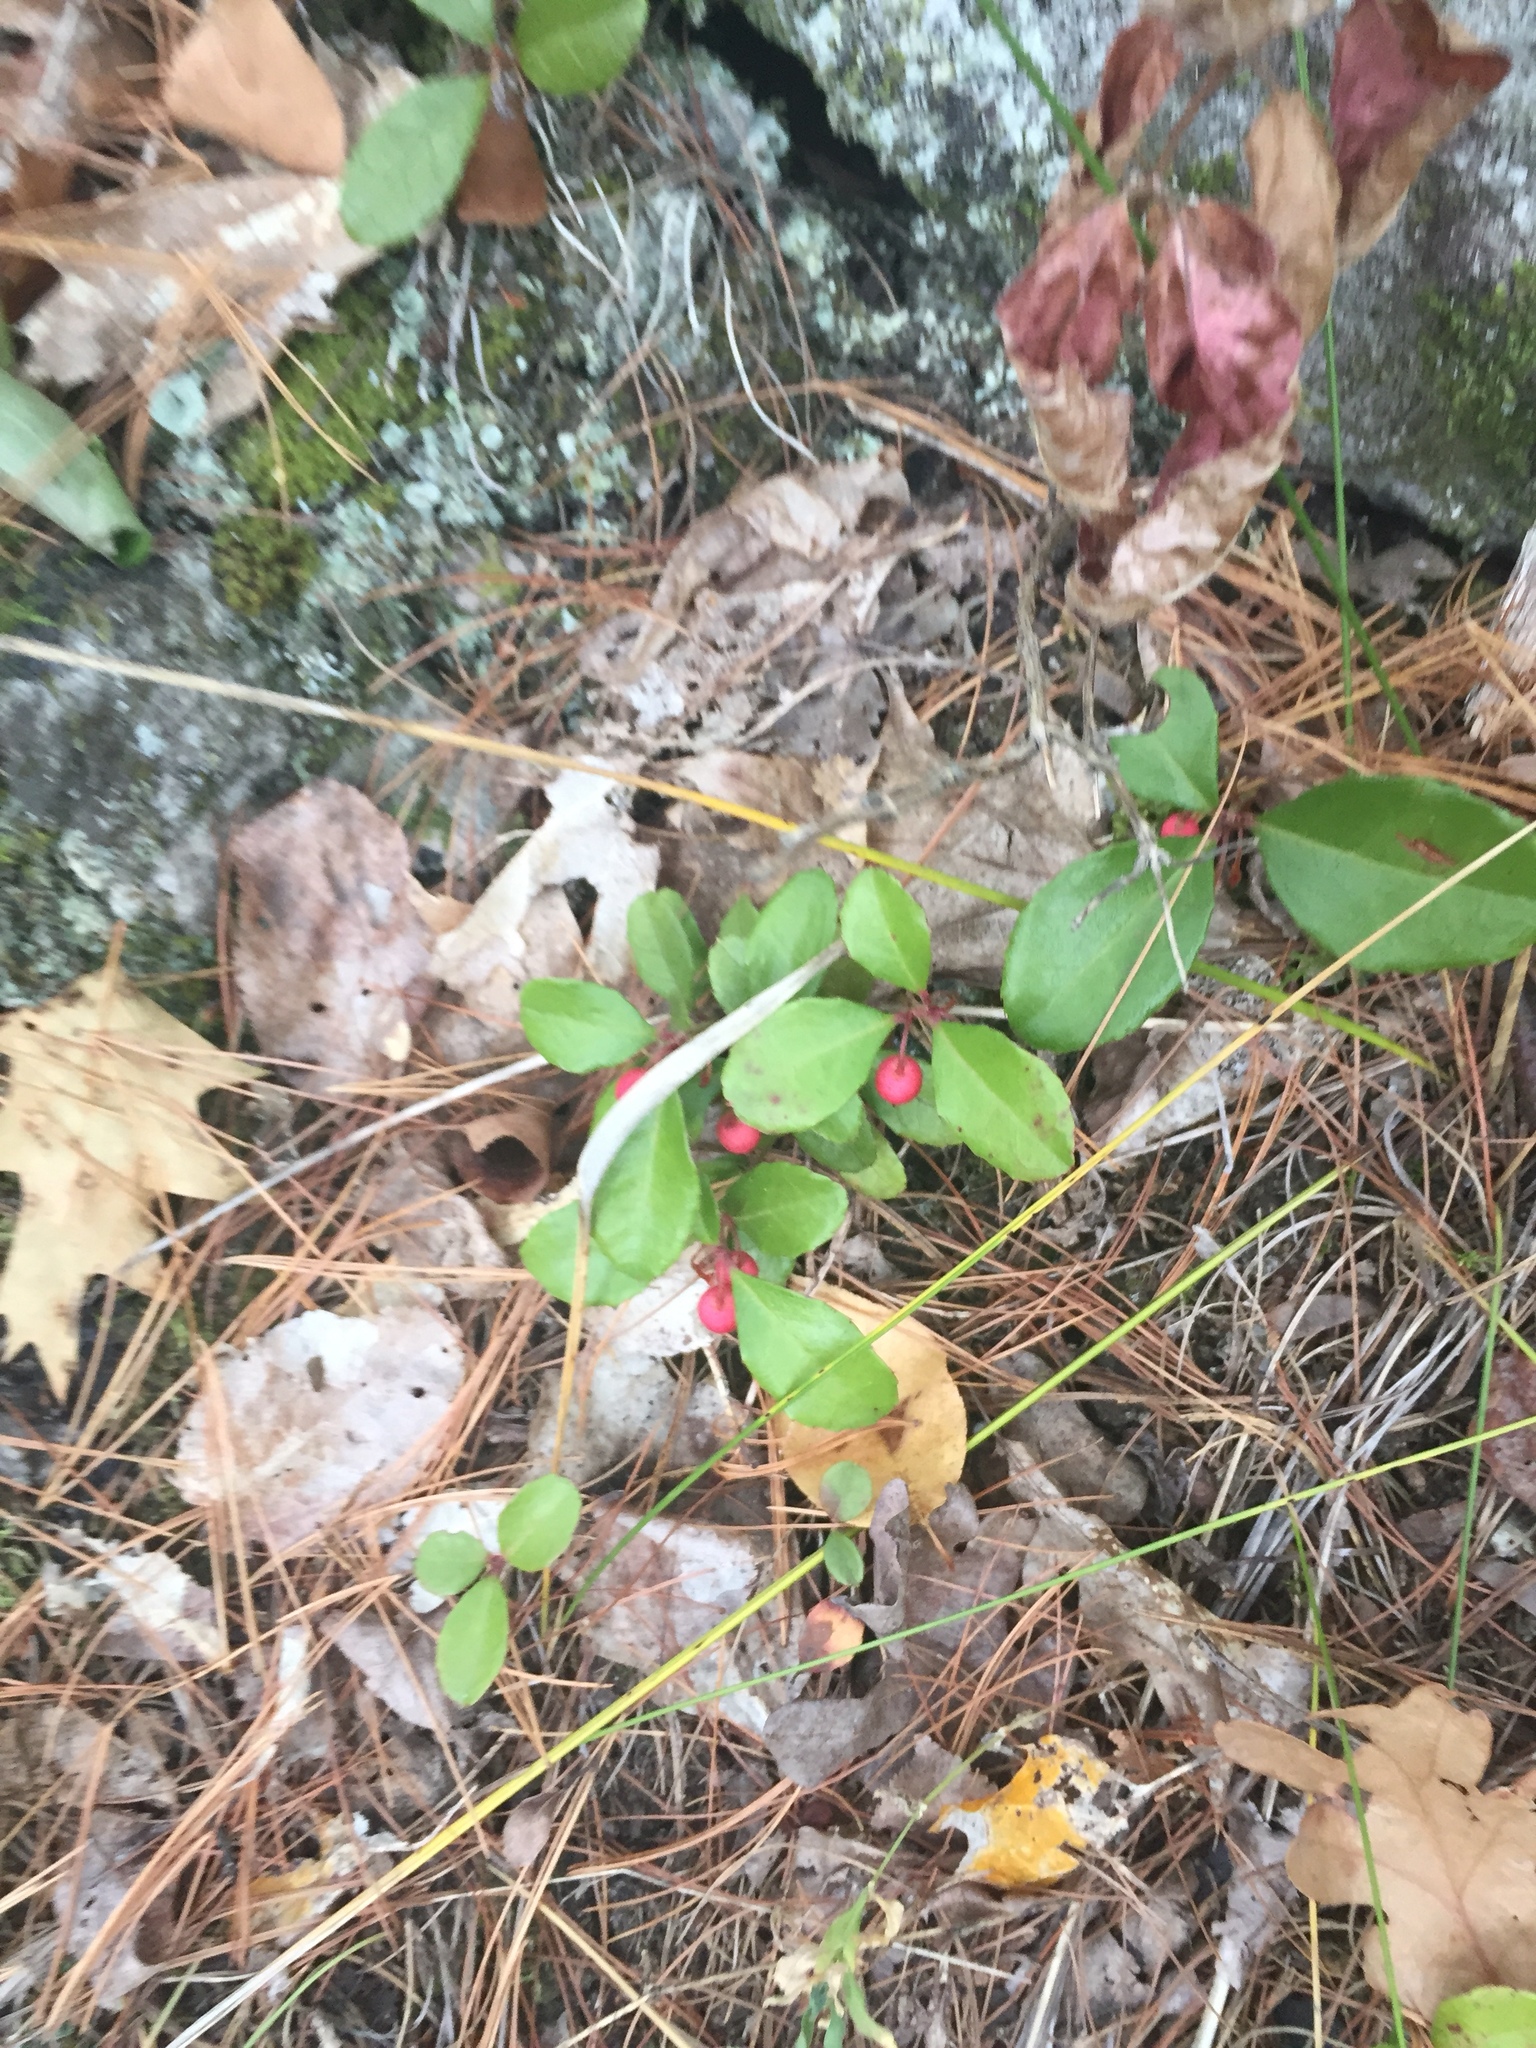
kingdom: Plantae
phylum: Tracheophyta
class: Magnoliopsida
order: Ericales
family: Ericaceae
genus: Gaultheria
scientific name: Gaultheria procumbens
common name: Checkerberry
